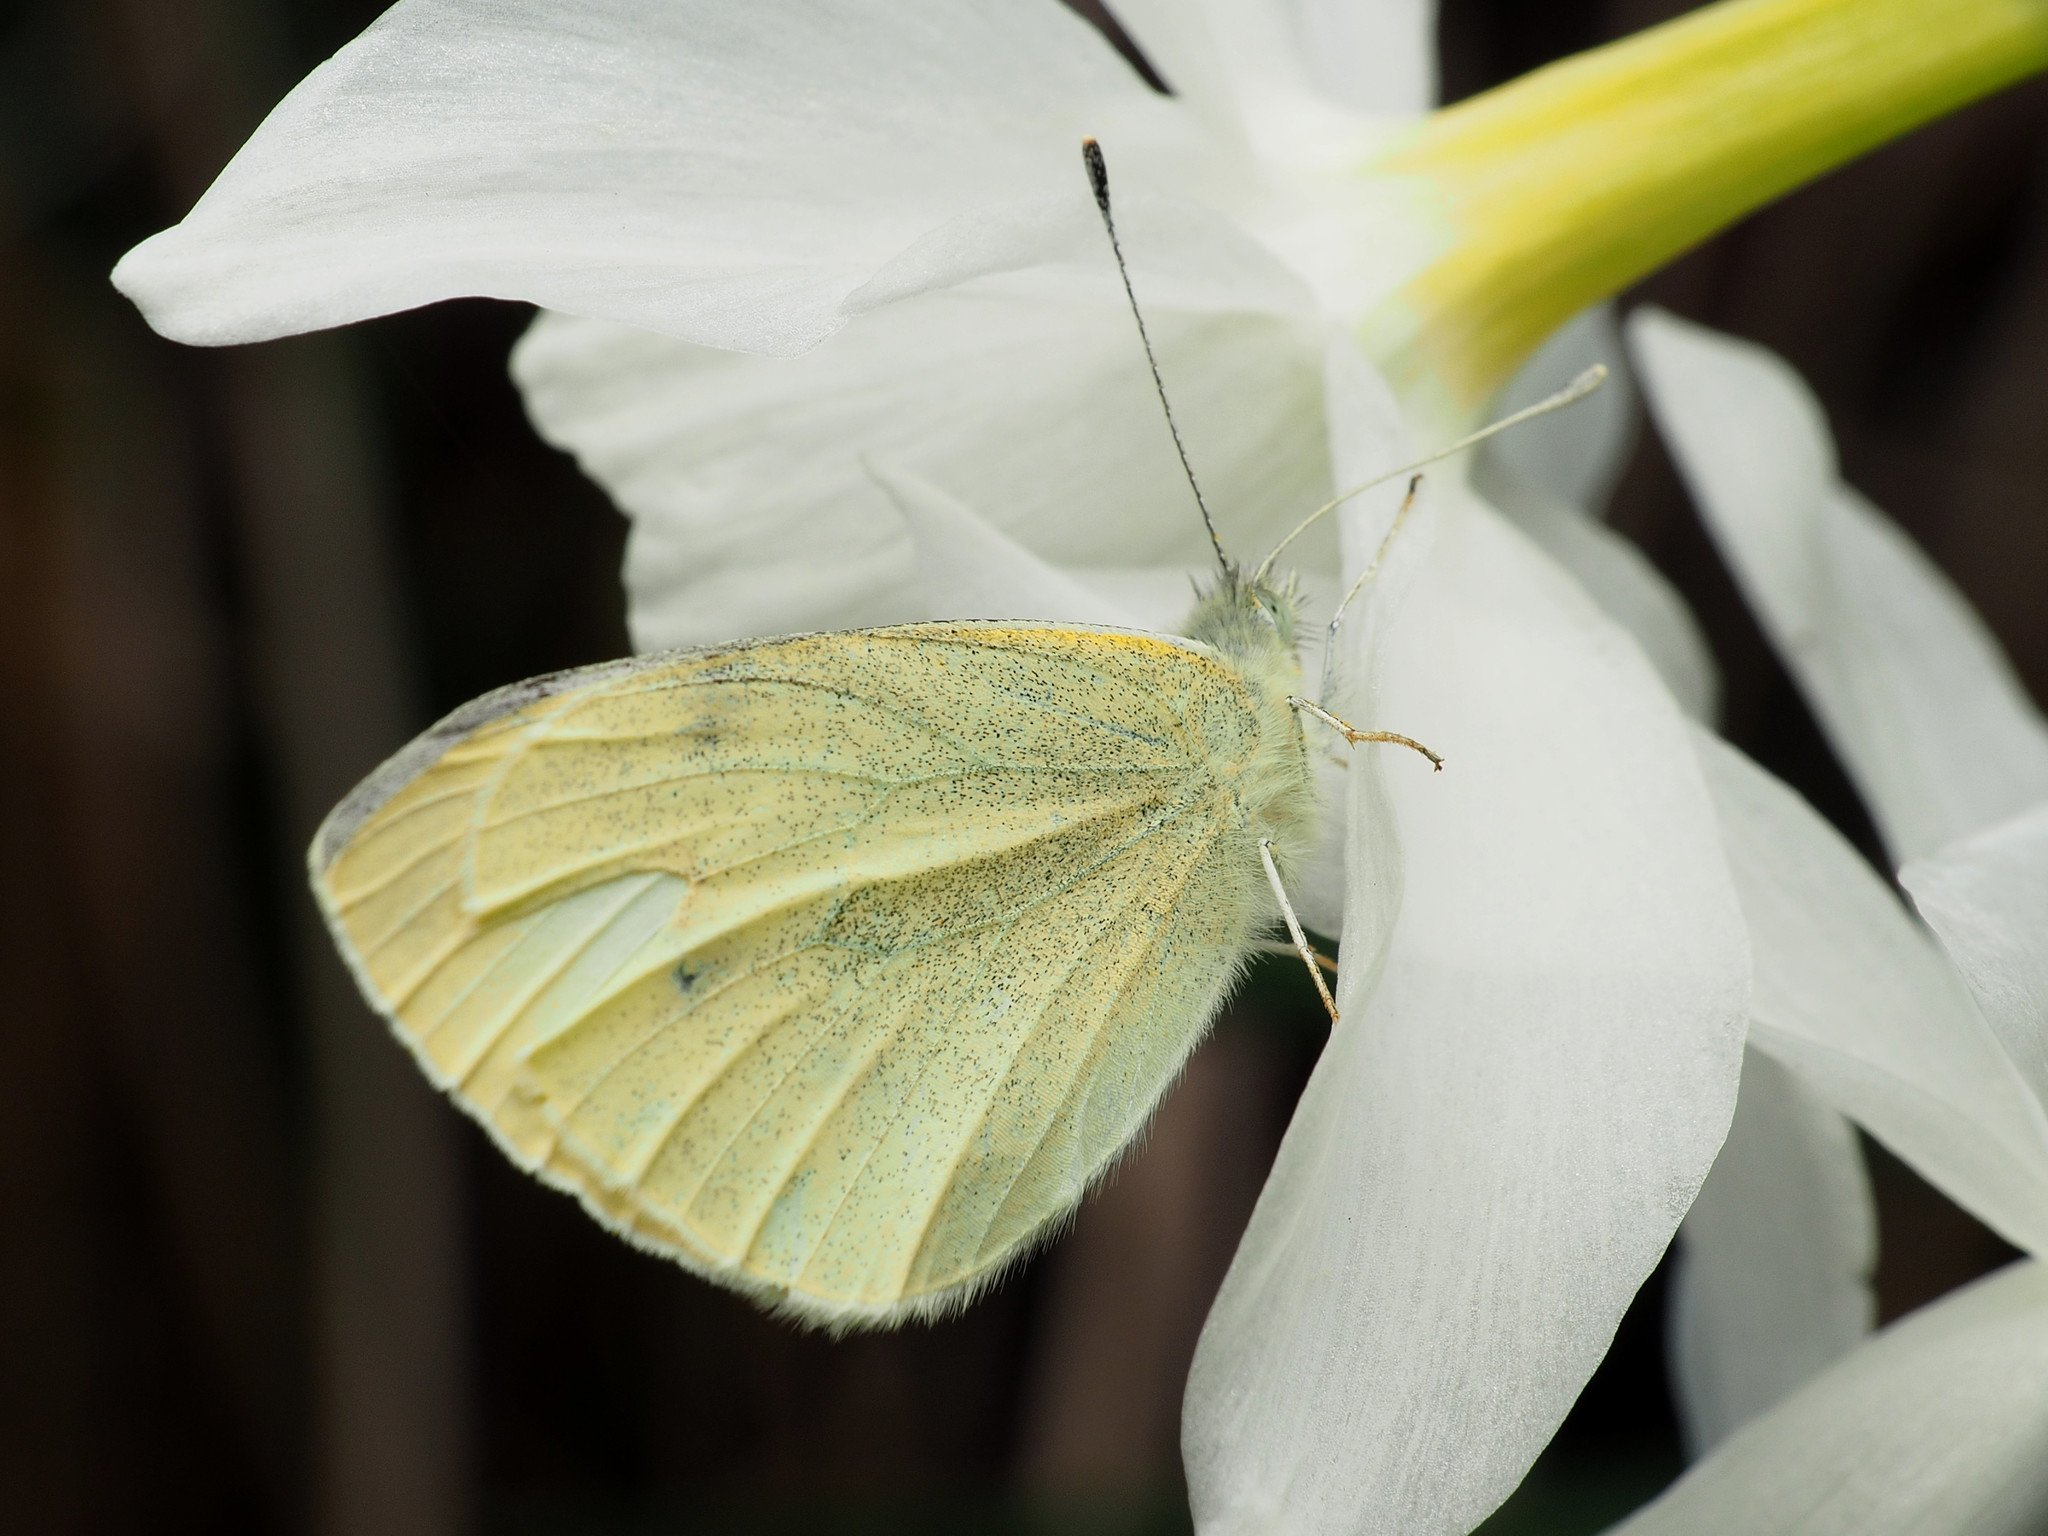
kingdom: Animalia
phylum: Arthropoda
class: Insecta
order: Lepidoptera
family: Pieridae
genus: Pieris
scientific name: Pieris rapae
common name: Small white
